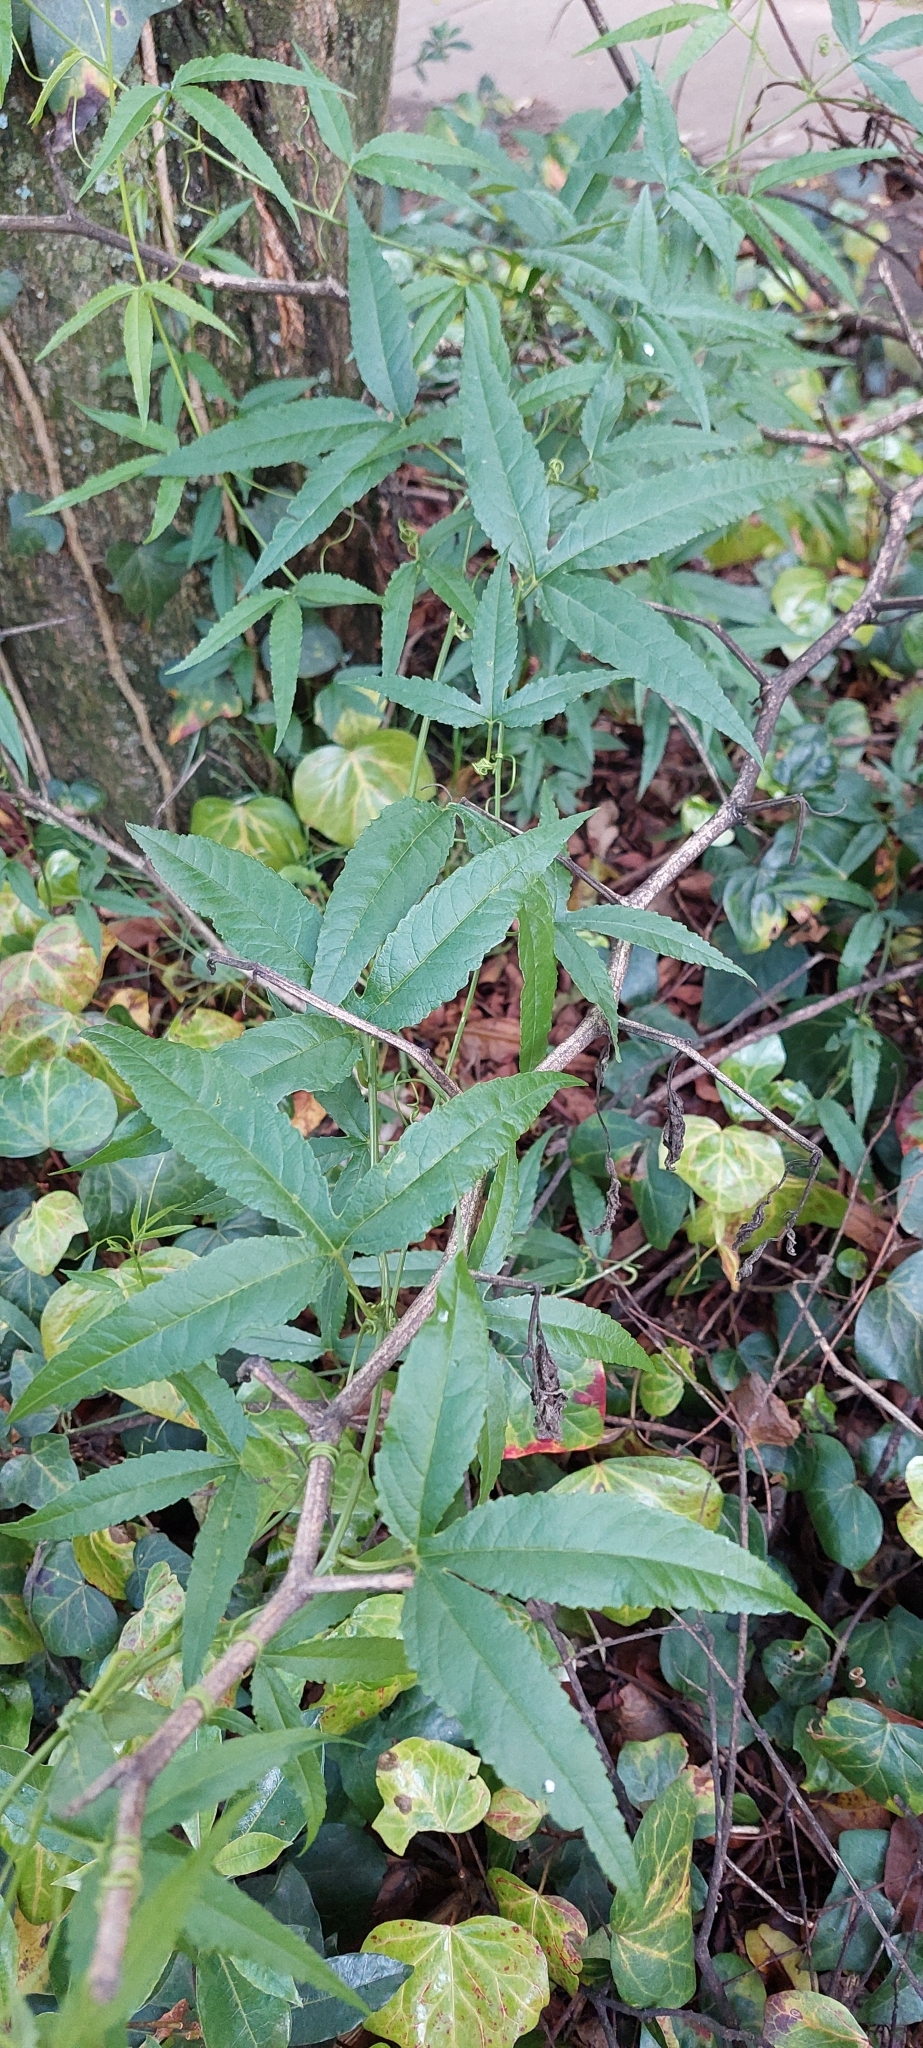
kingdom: Plantae
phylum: Tracheophyta
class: Magnoliopsida
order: Malpighiales
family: Passifloraceae
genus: Passiflora
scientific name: Passiflora tarminiana
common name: Banana poka
